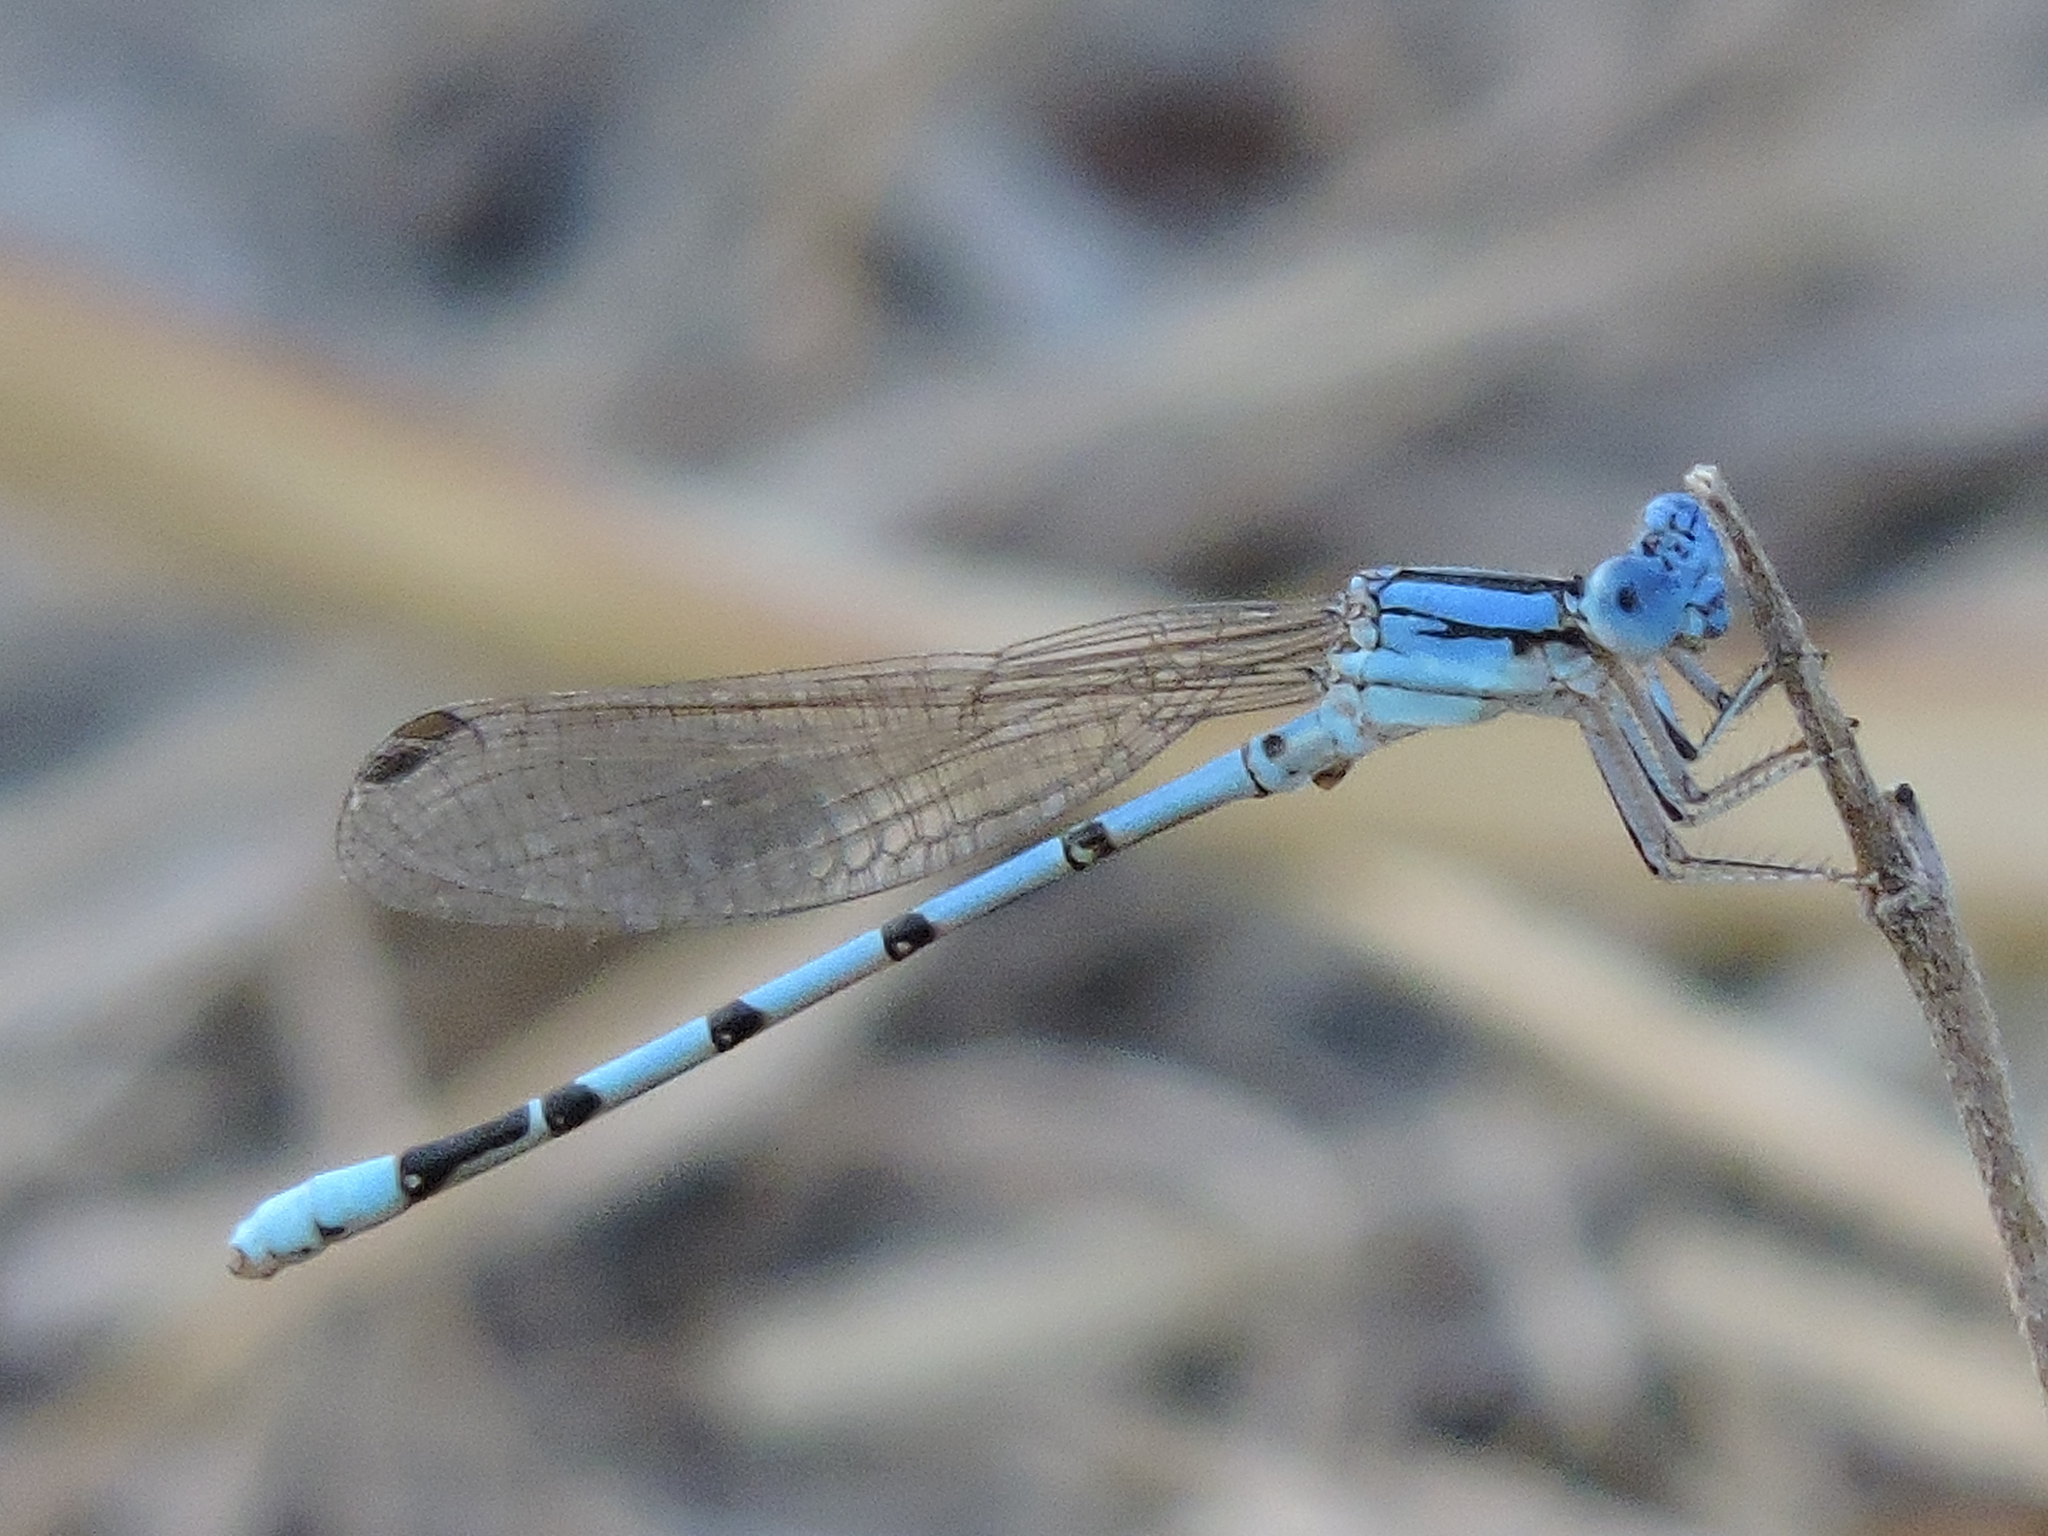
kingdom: Animalia
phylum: Arthropoda
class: Insecta
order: Odonata
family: Coenagrionidae
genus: Argia
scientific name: Argia nahuana
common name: Aztec dancer
